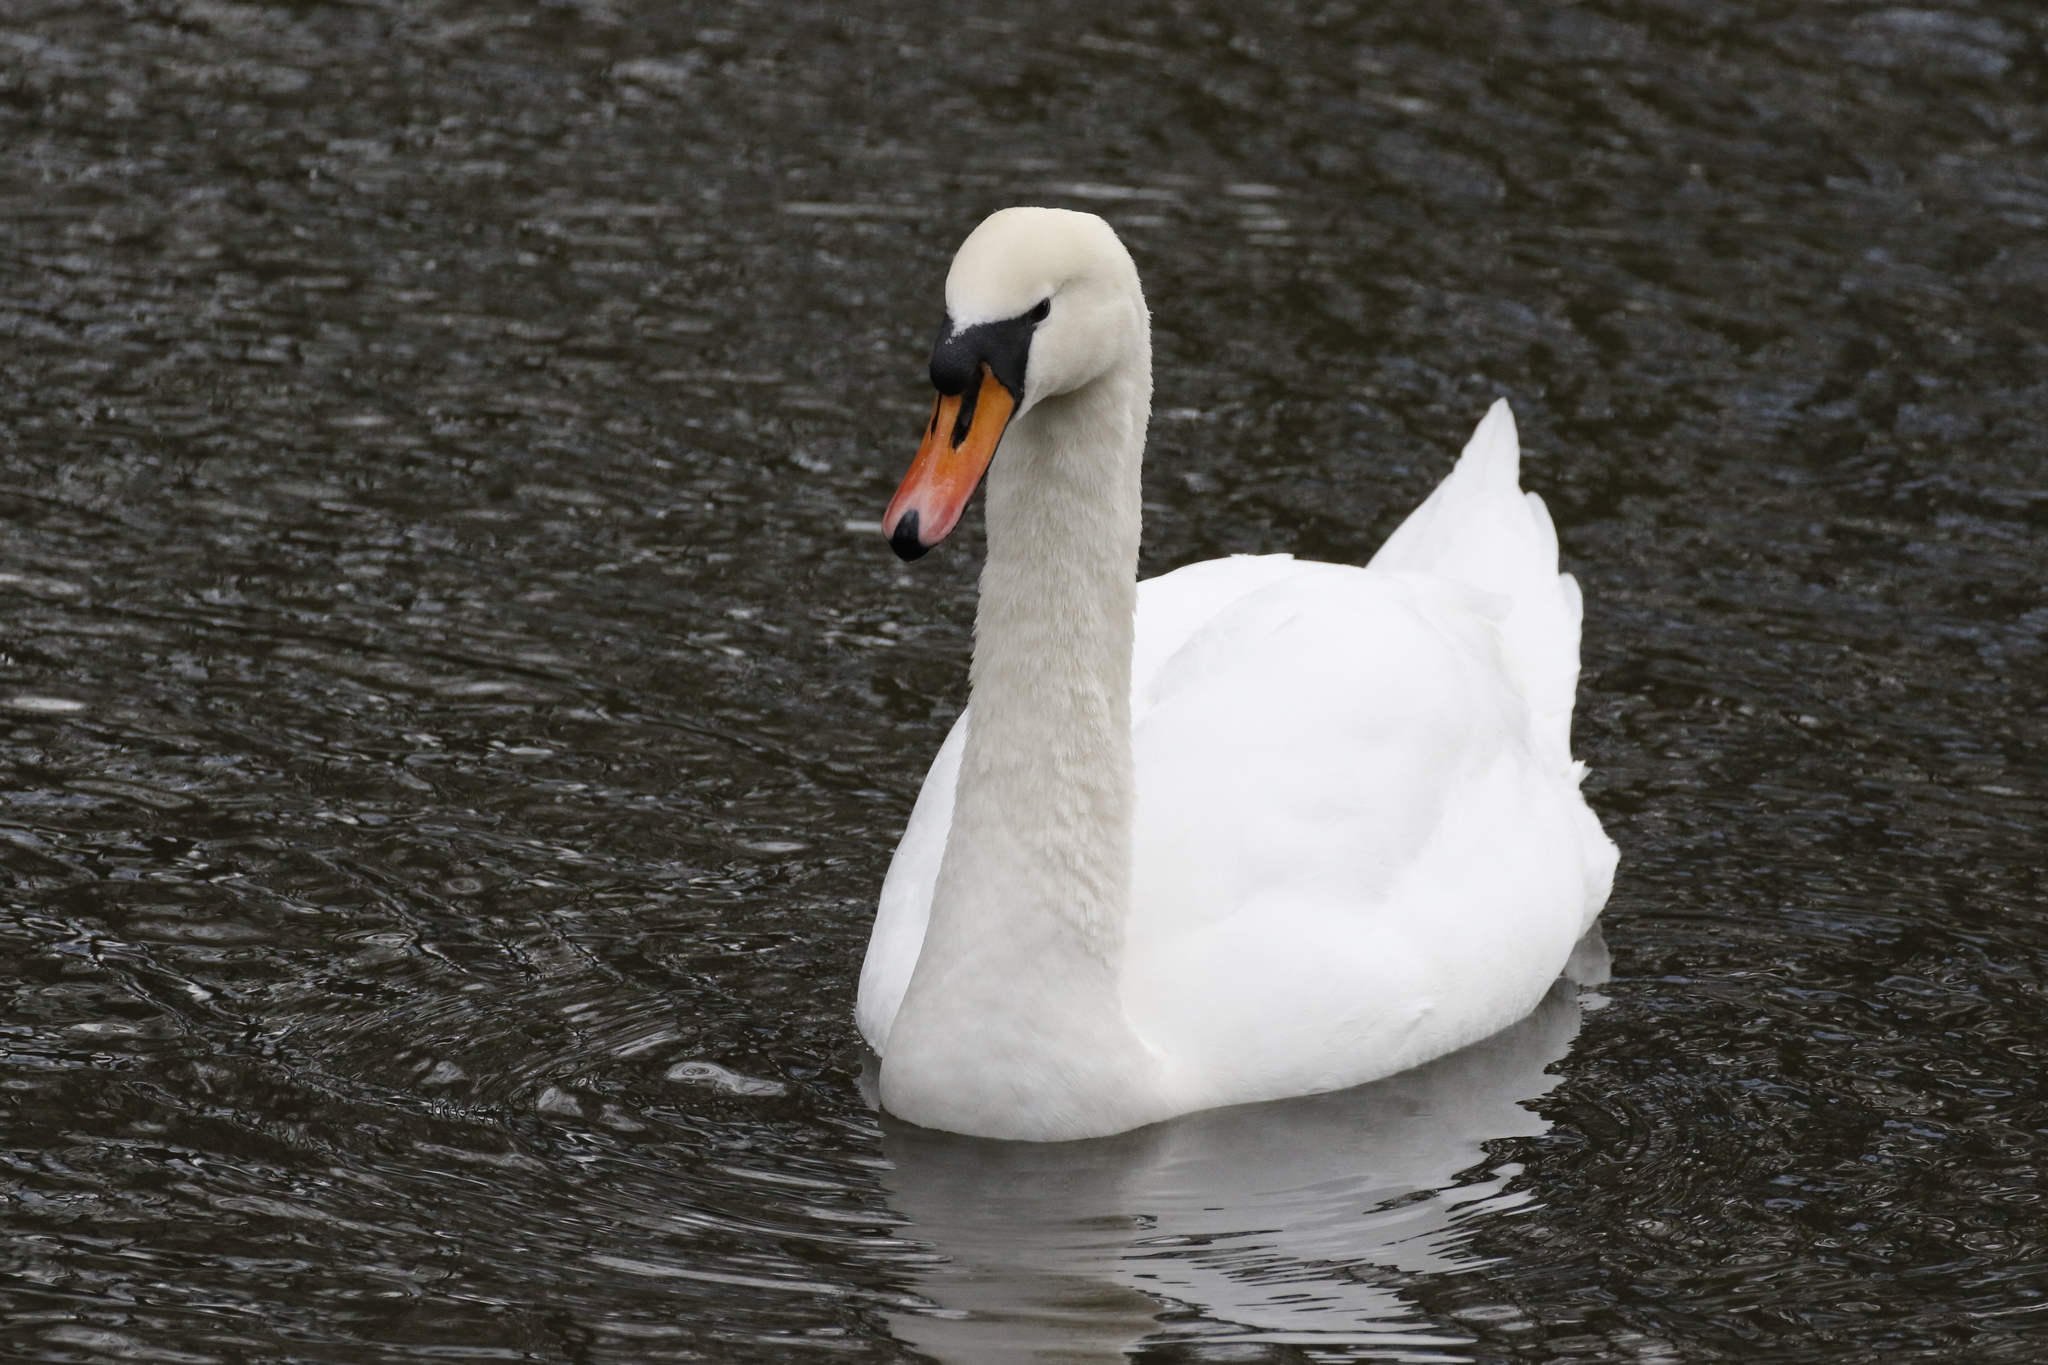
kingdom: Animalia
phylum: Chordata
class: Aves
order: Anseriformes
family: Anatidae
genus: Cygnus
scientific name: Cygnus olor
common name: Mute swan
